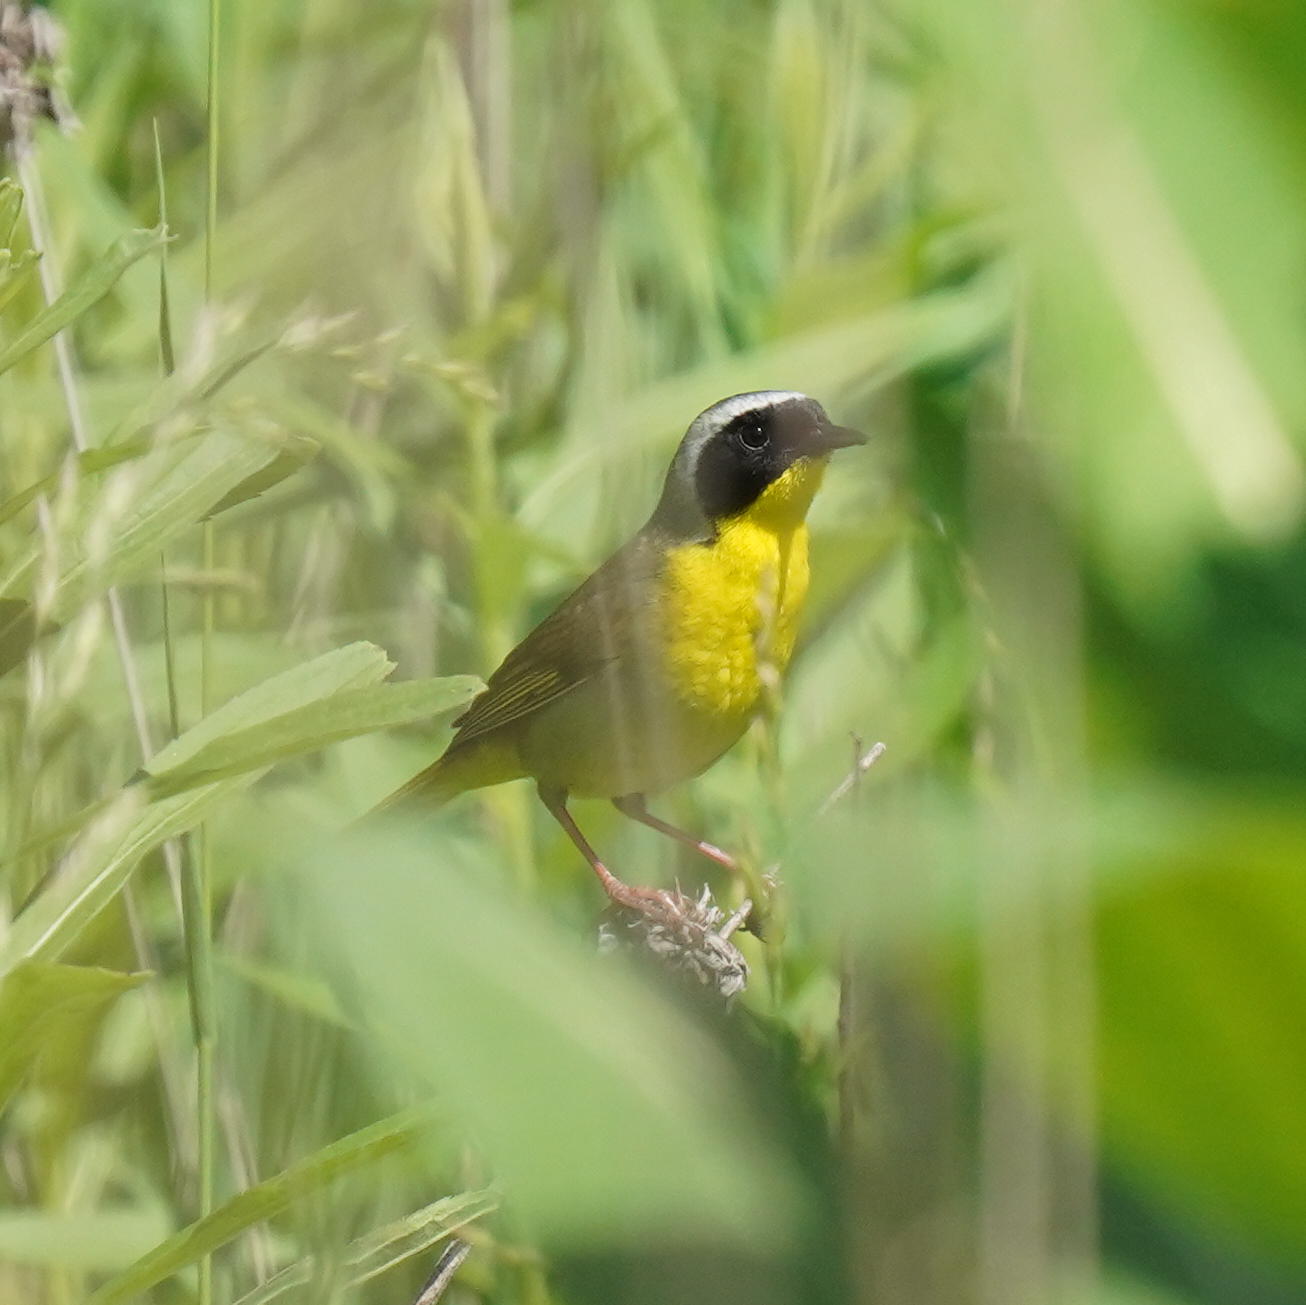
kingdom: Animalia
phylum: Chordata
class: Aves
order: Passeriformes
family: Parulidae
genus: Geothlypis
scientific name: Geothlypis trichas
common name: Common yellowthroat
